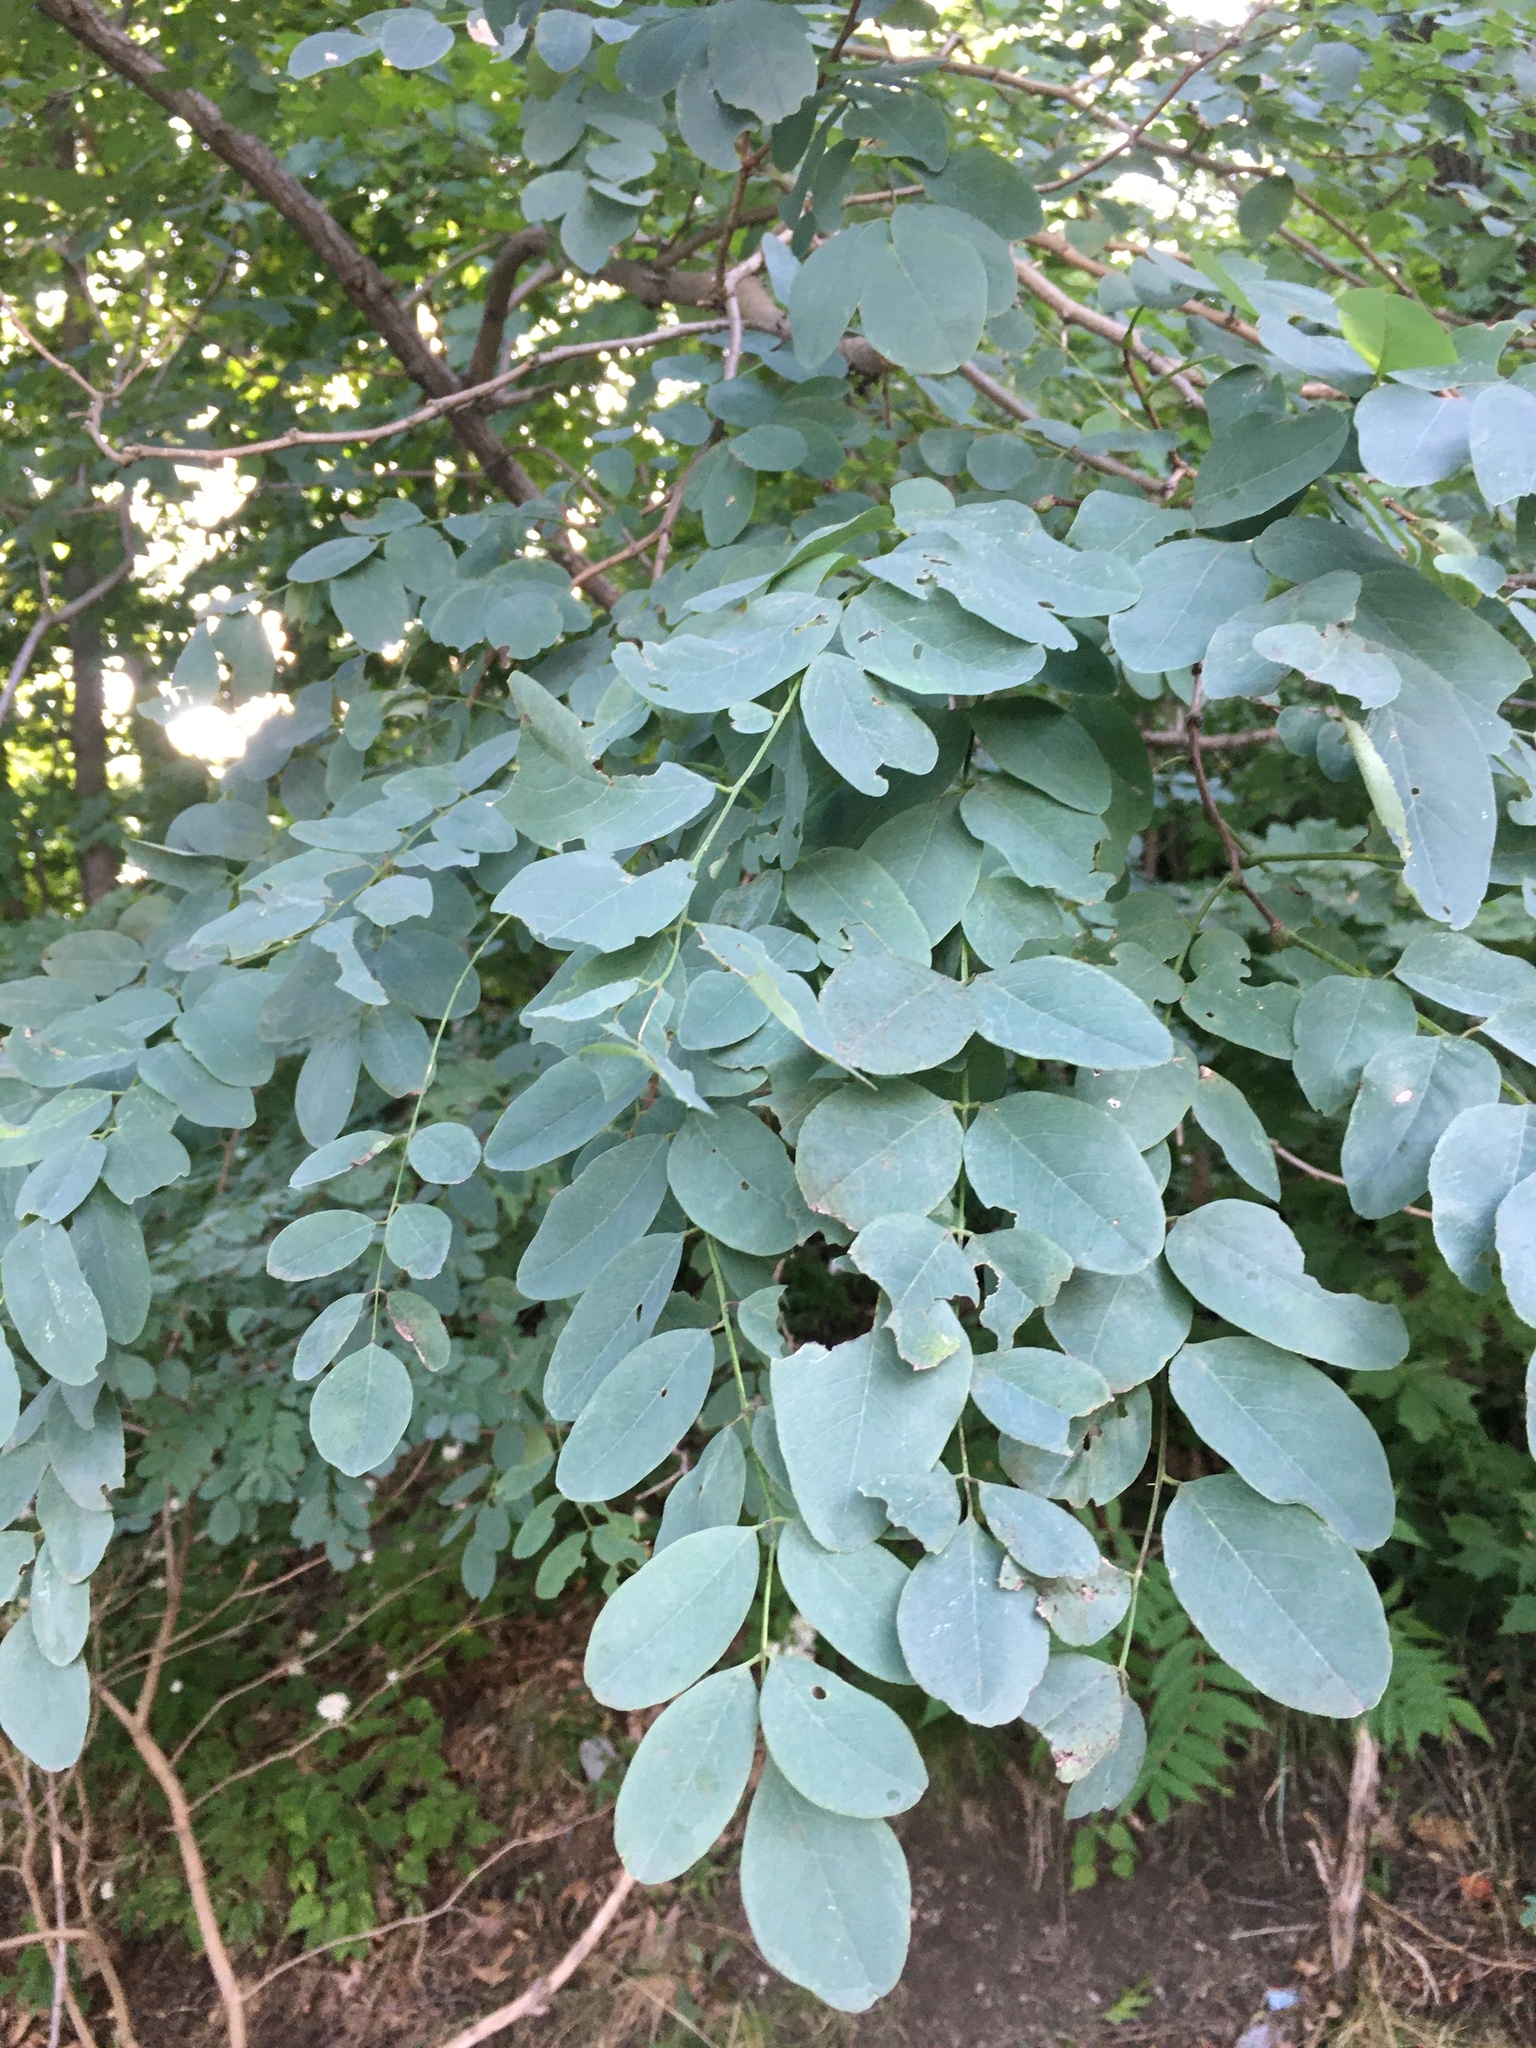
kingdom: Plantae
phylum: Tracheophyta
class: Magnoliopsida
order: Fabales
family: Fabaceae
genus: Robinia
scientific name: Robinia pseudoacacia
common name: Black locust
